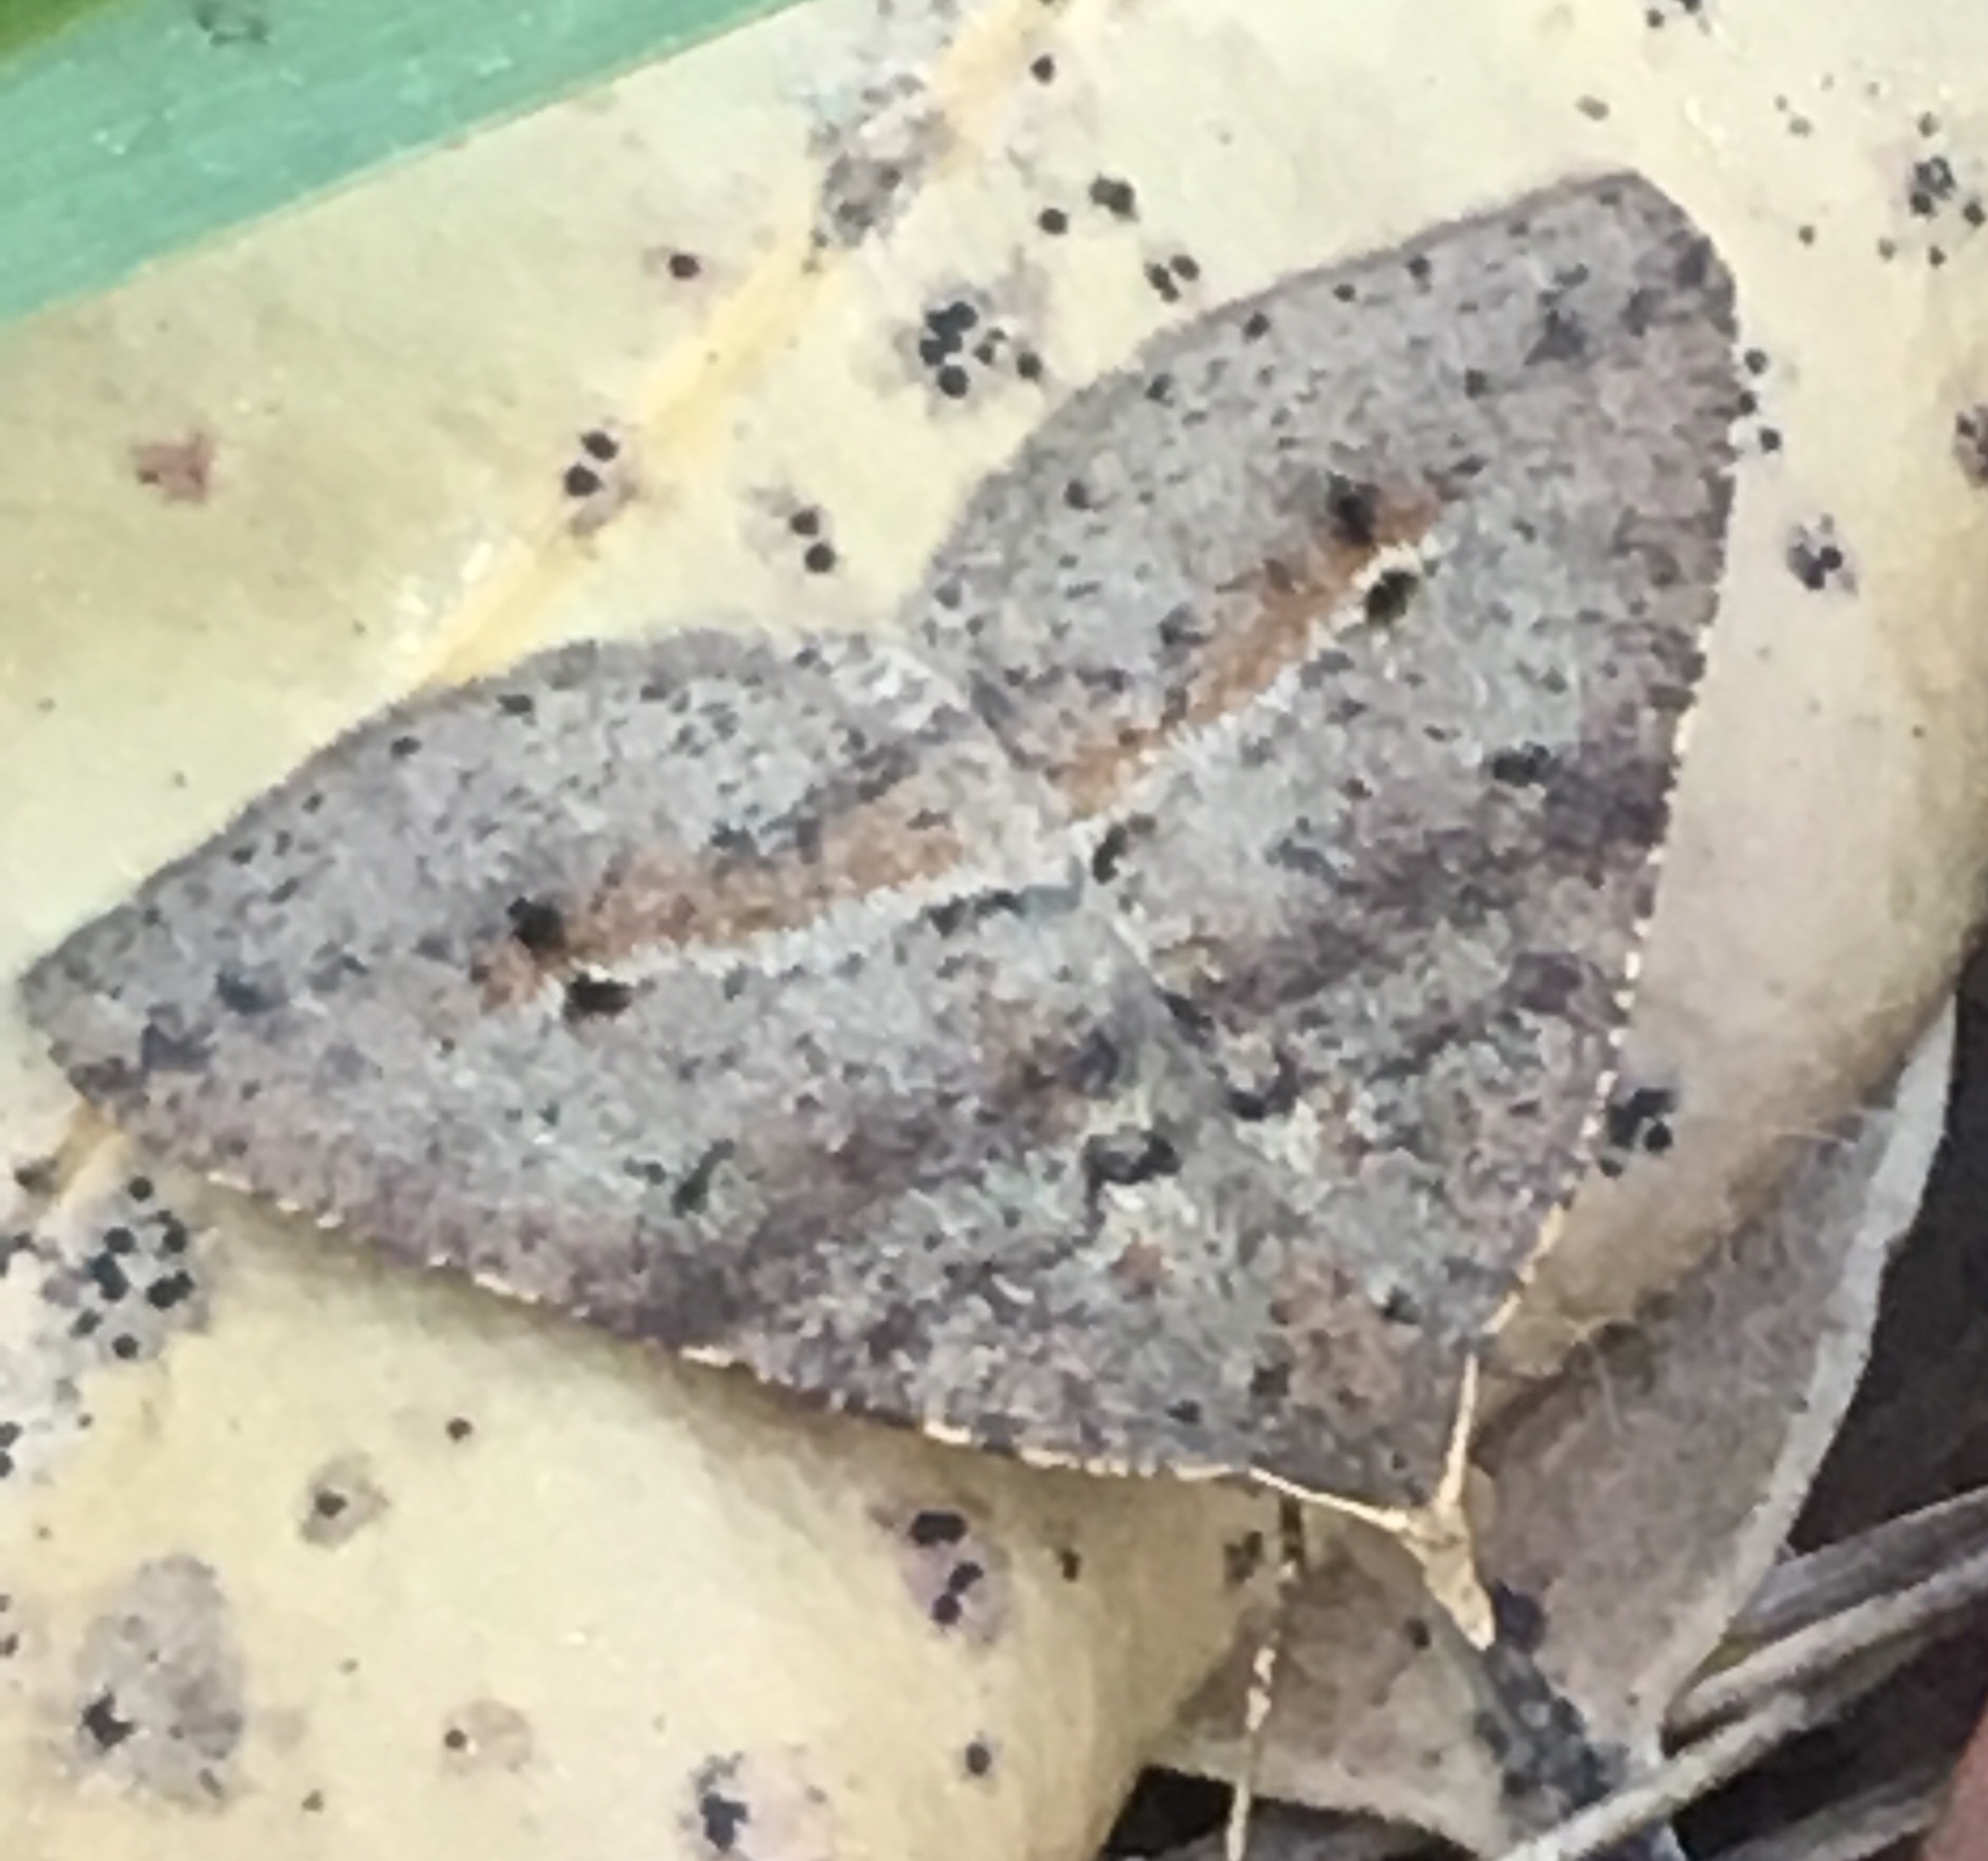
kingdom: Animalia
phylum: Arthropoda
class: Insecta
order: Lepidoptera
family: Geometridae
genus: Parosteodes
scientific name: Parosteodes fictiliaria
